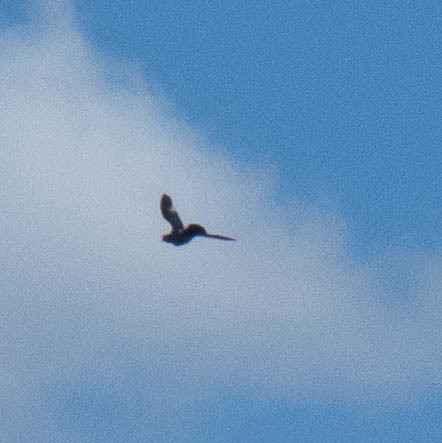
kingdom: Animalia
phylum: Chordata
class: Aves
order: Columbiformes
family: Columbidae
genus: Columba
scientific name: Columba livia
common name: Rock pigeon
